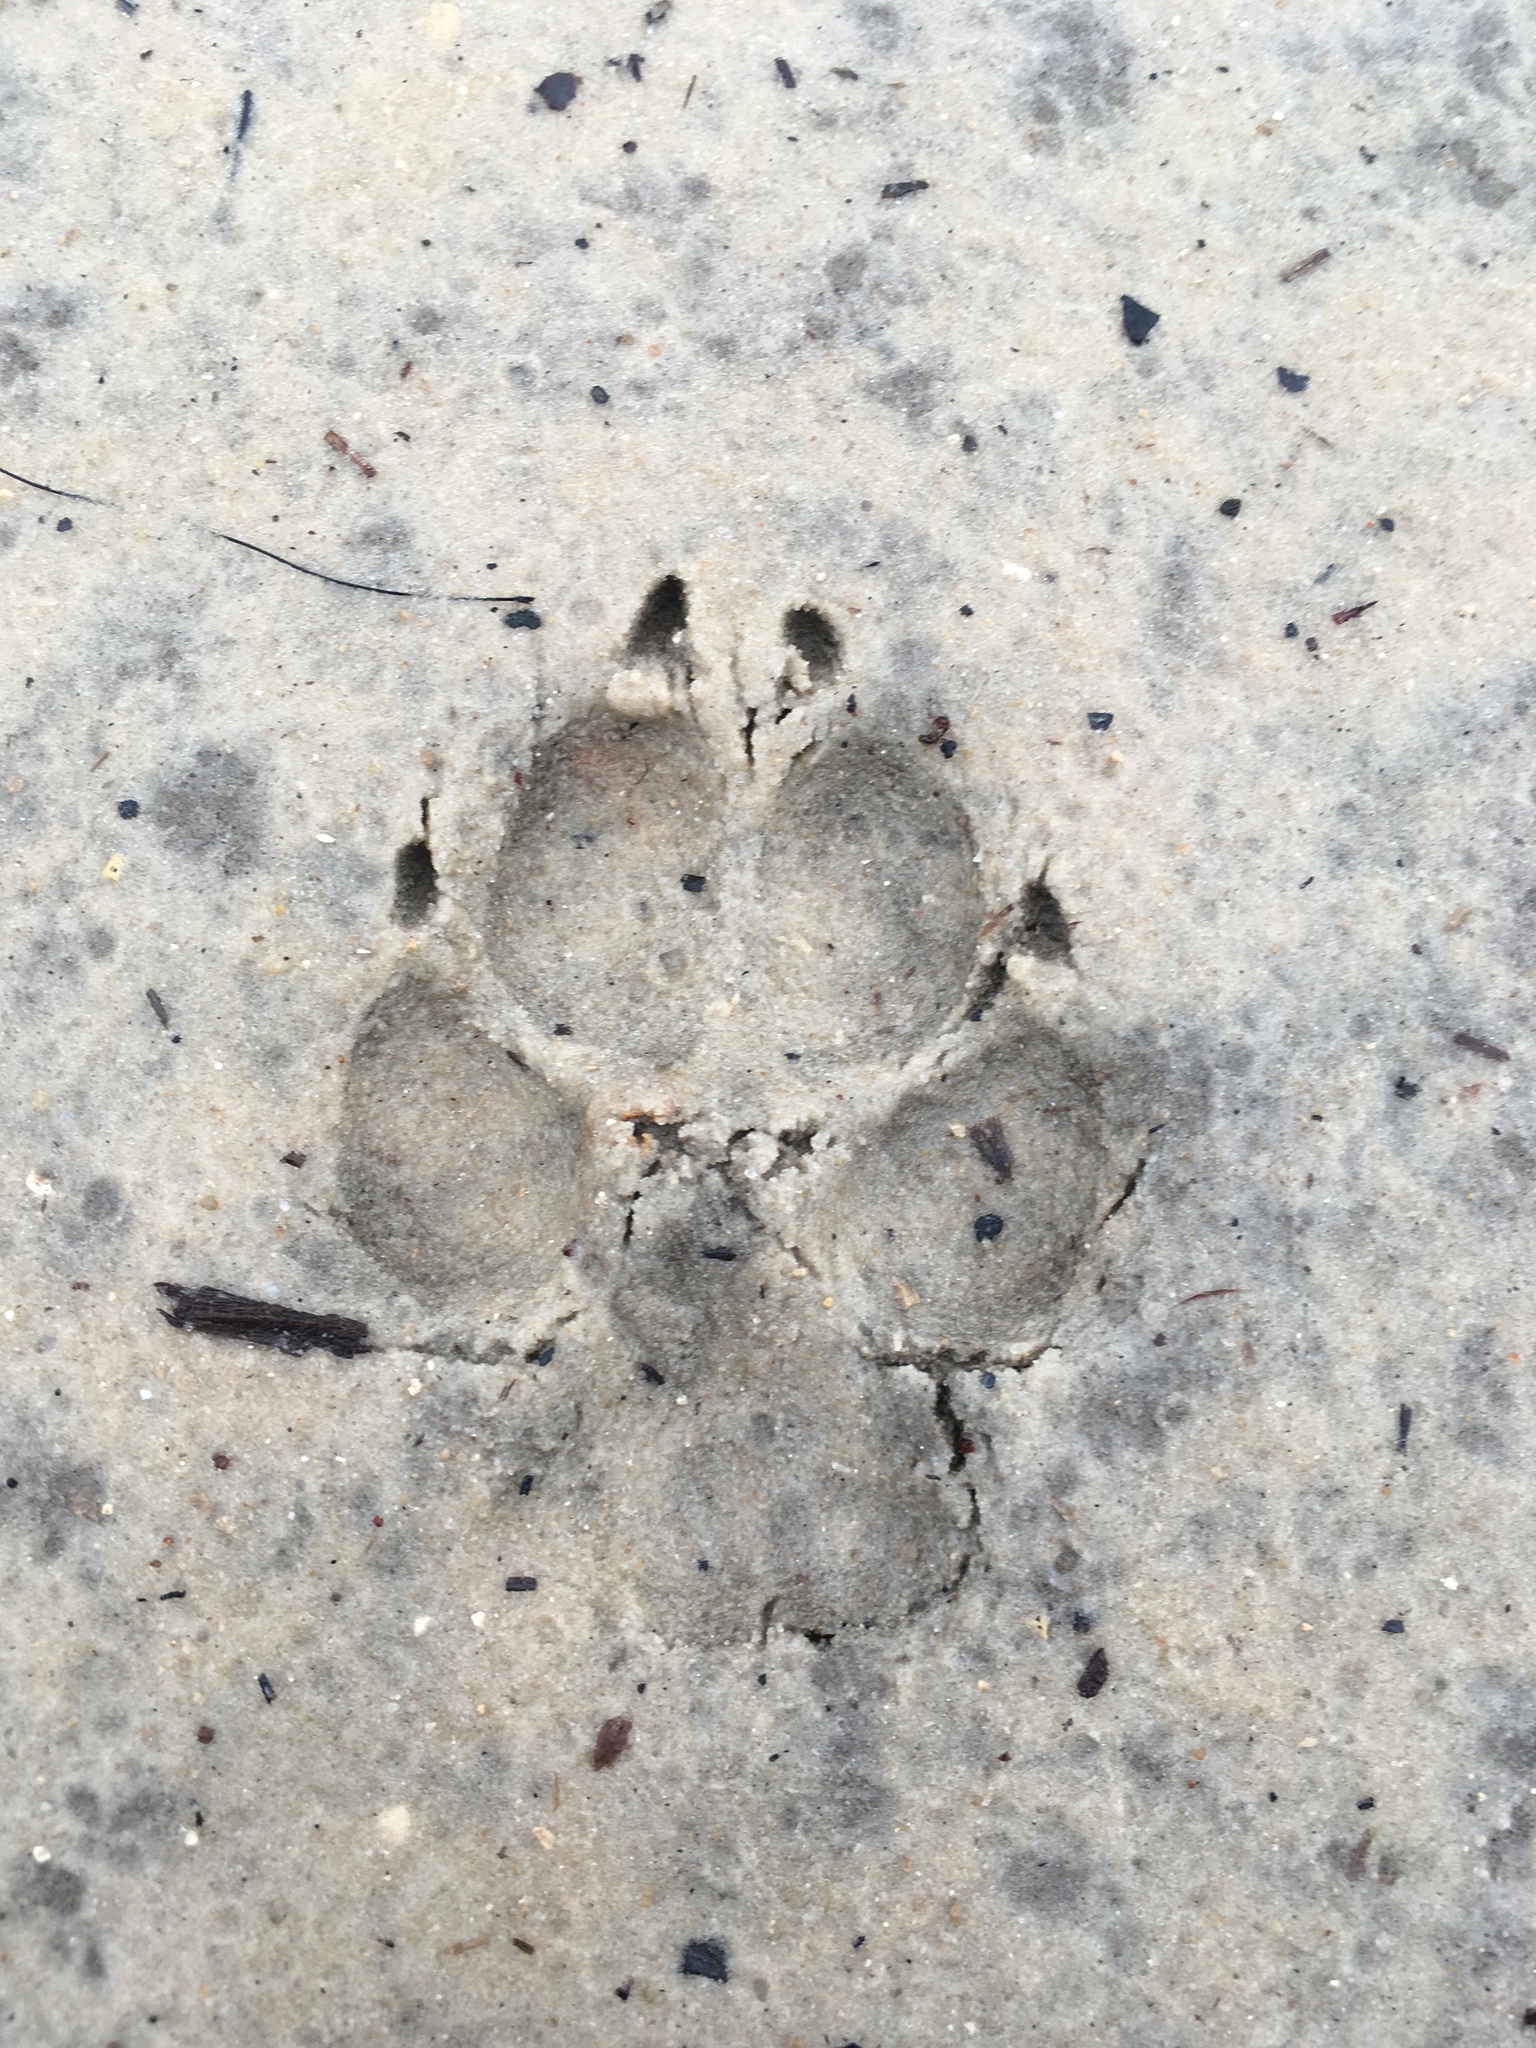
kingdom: Animalia
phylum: Chordata
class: Mammalia
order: Carnivora
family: Canidae
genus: Canis
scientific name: Canis latrans
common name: Coyote
